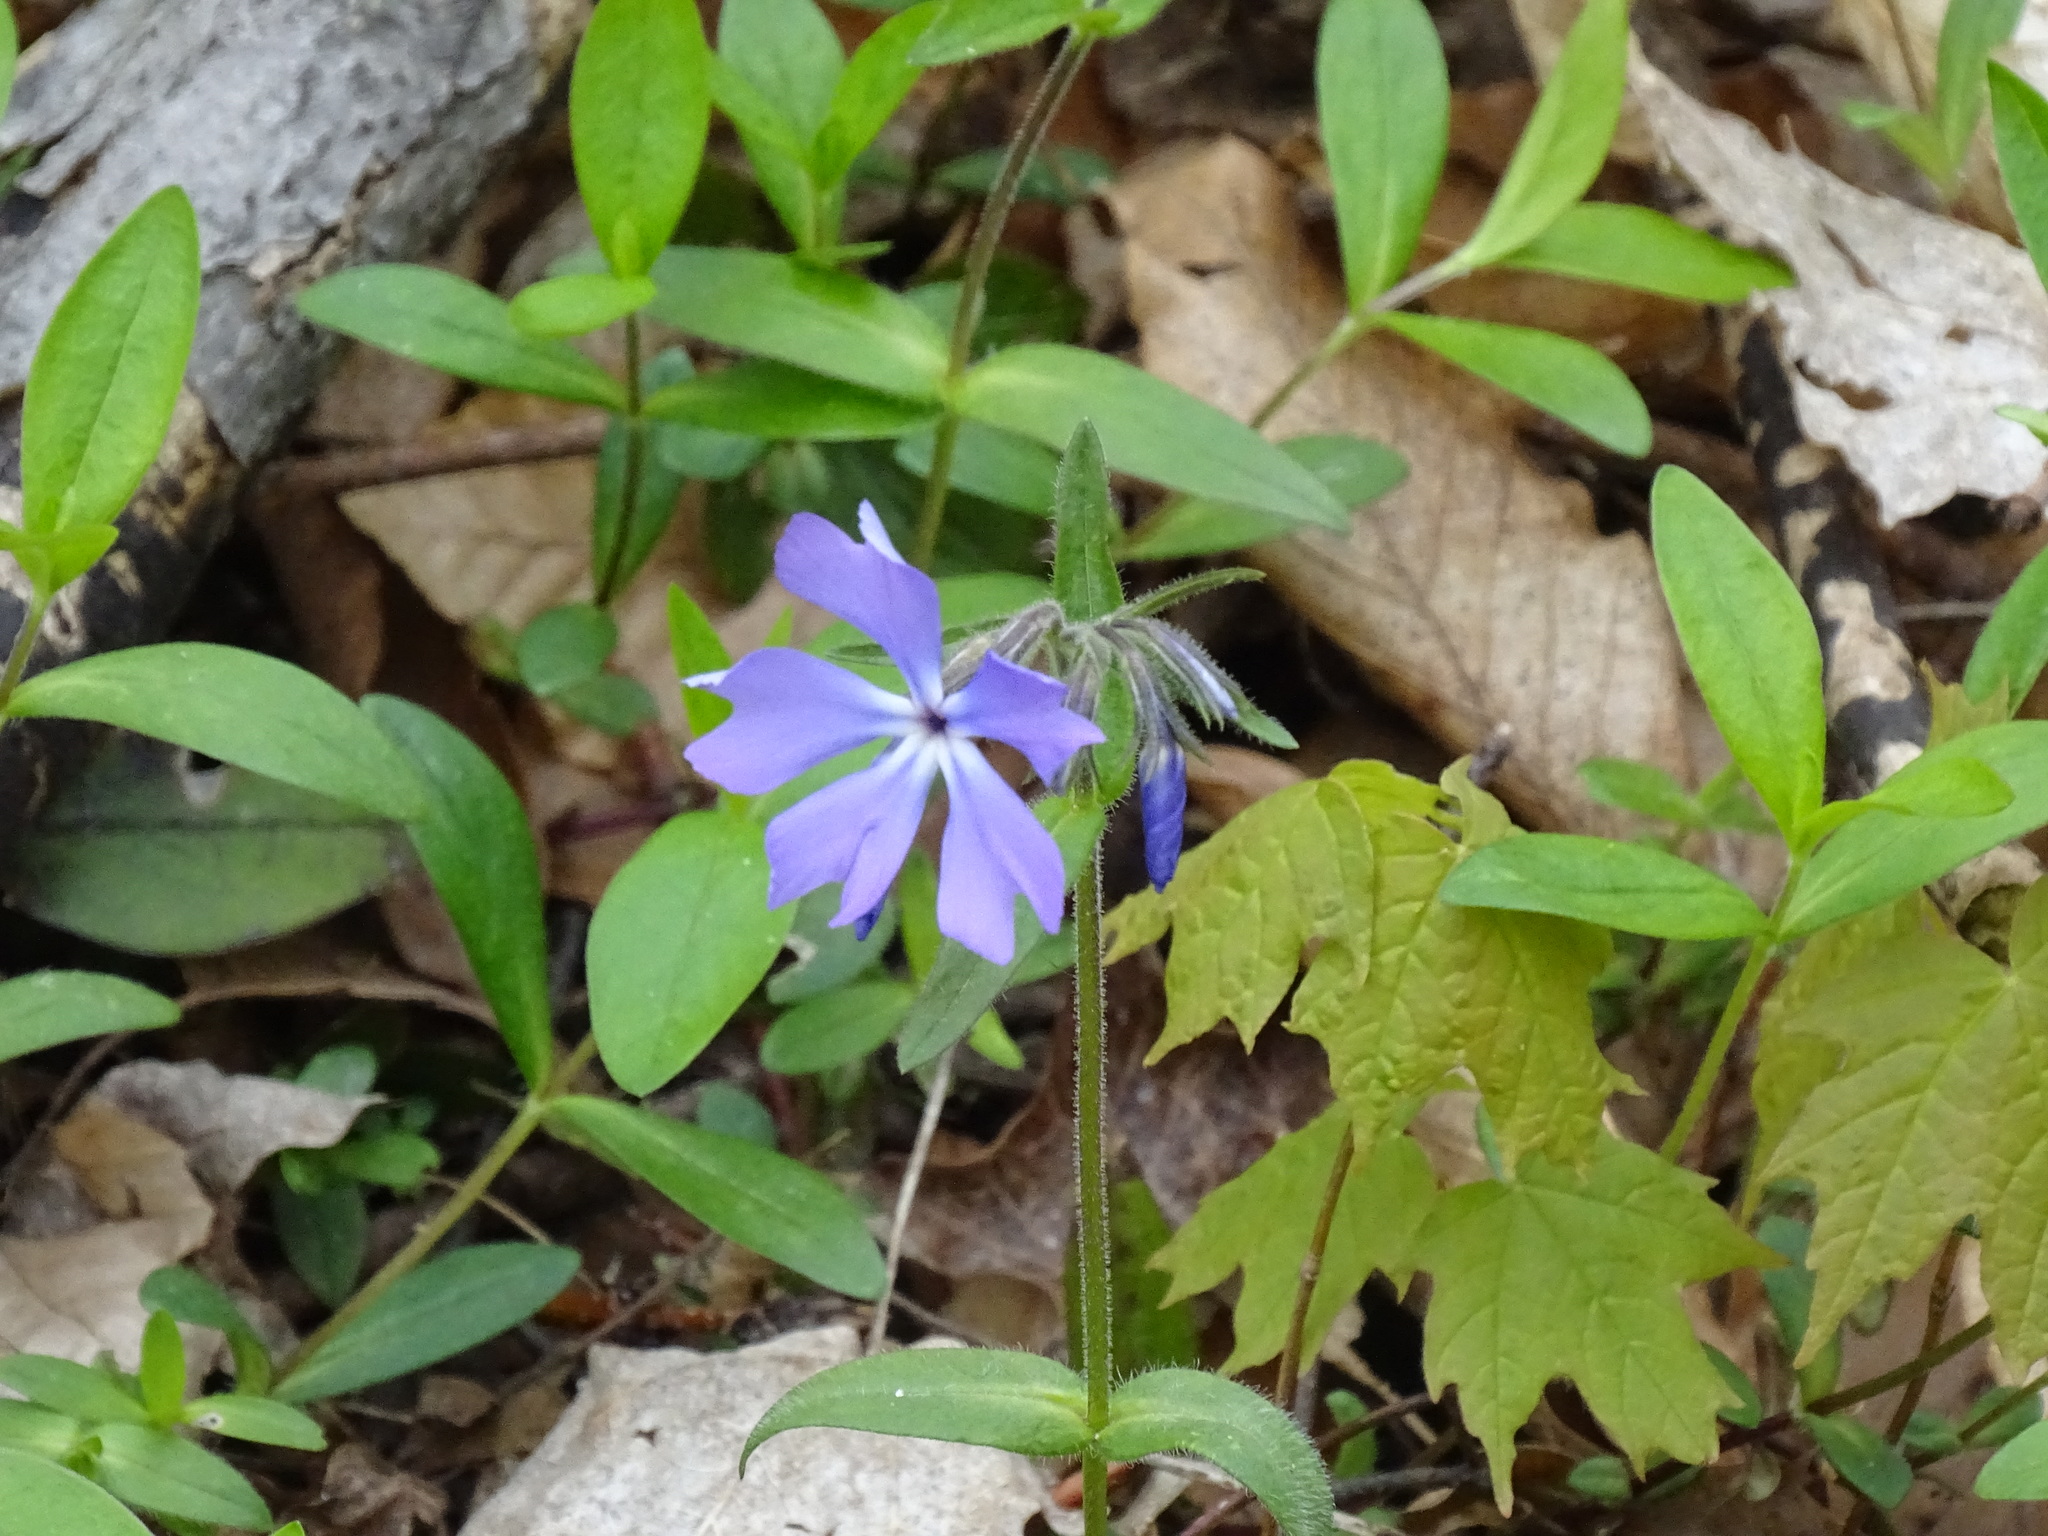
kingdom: Plantae
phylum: Tracheophyta
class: Magnoliopsida
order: Ericales
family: Polemoniaceae
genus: Phlox
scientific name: Phlox divaricata
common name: Blue phlox
